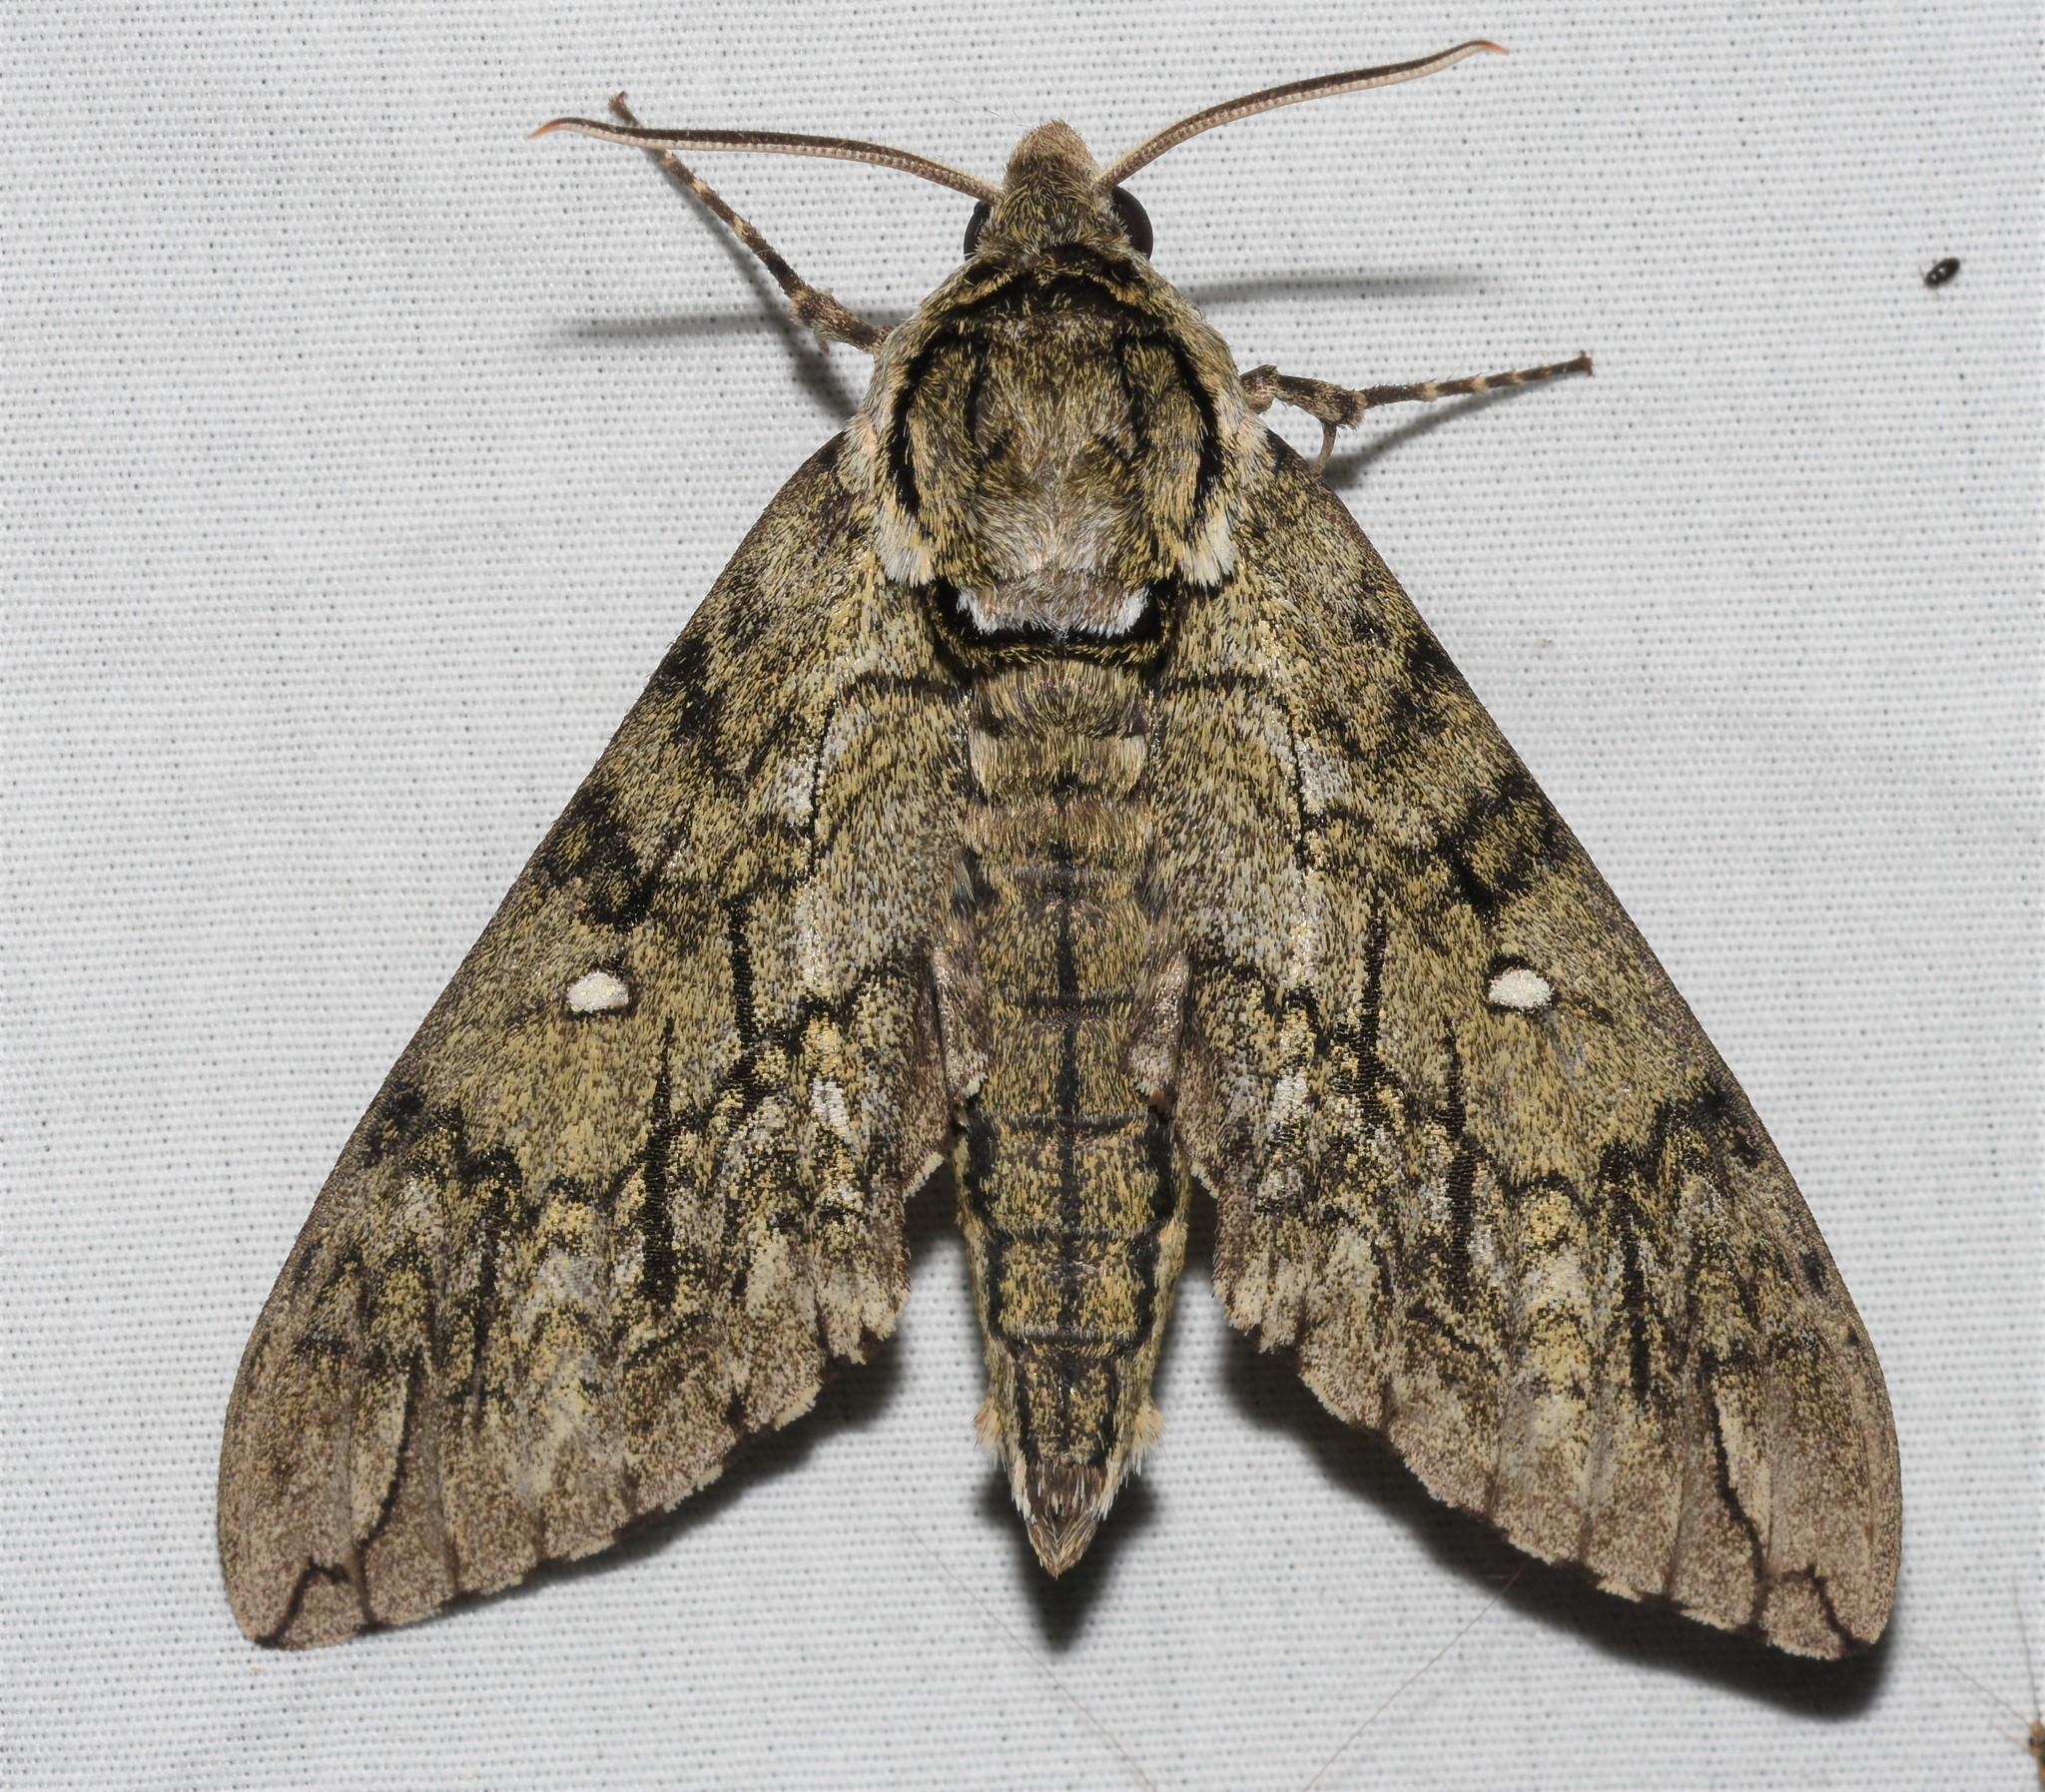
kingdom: Animalia
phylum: Arthropoda
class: Insecta
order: Lepidoptera
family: Sphingidae
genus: Ceratomia
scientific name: Ceratomia undulosa
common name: Waved sphinx
